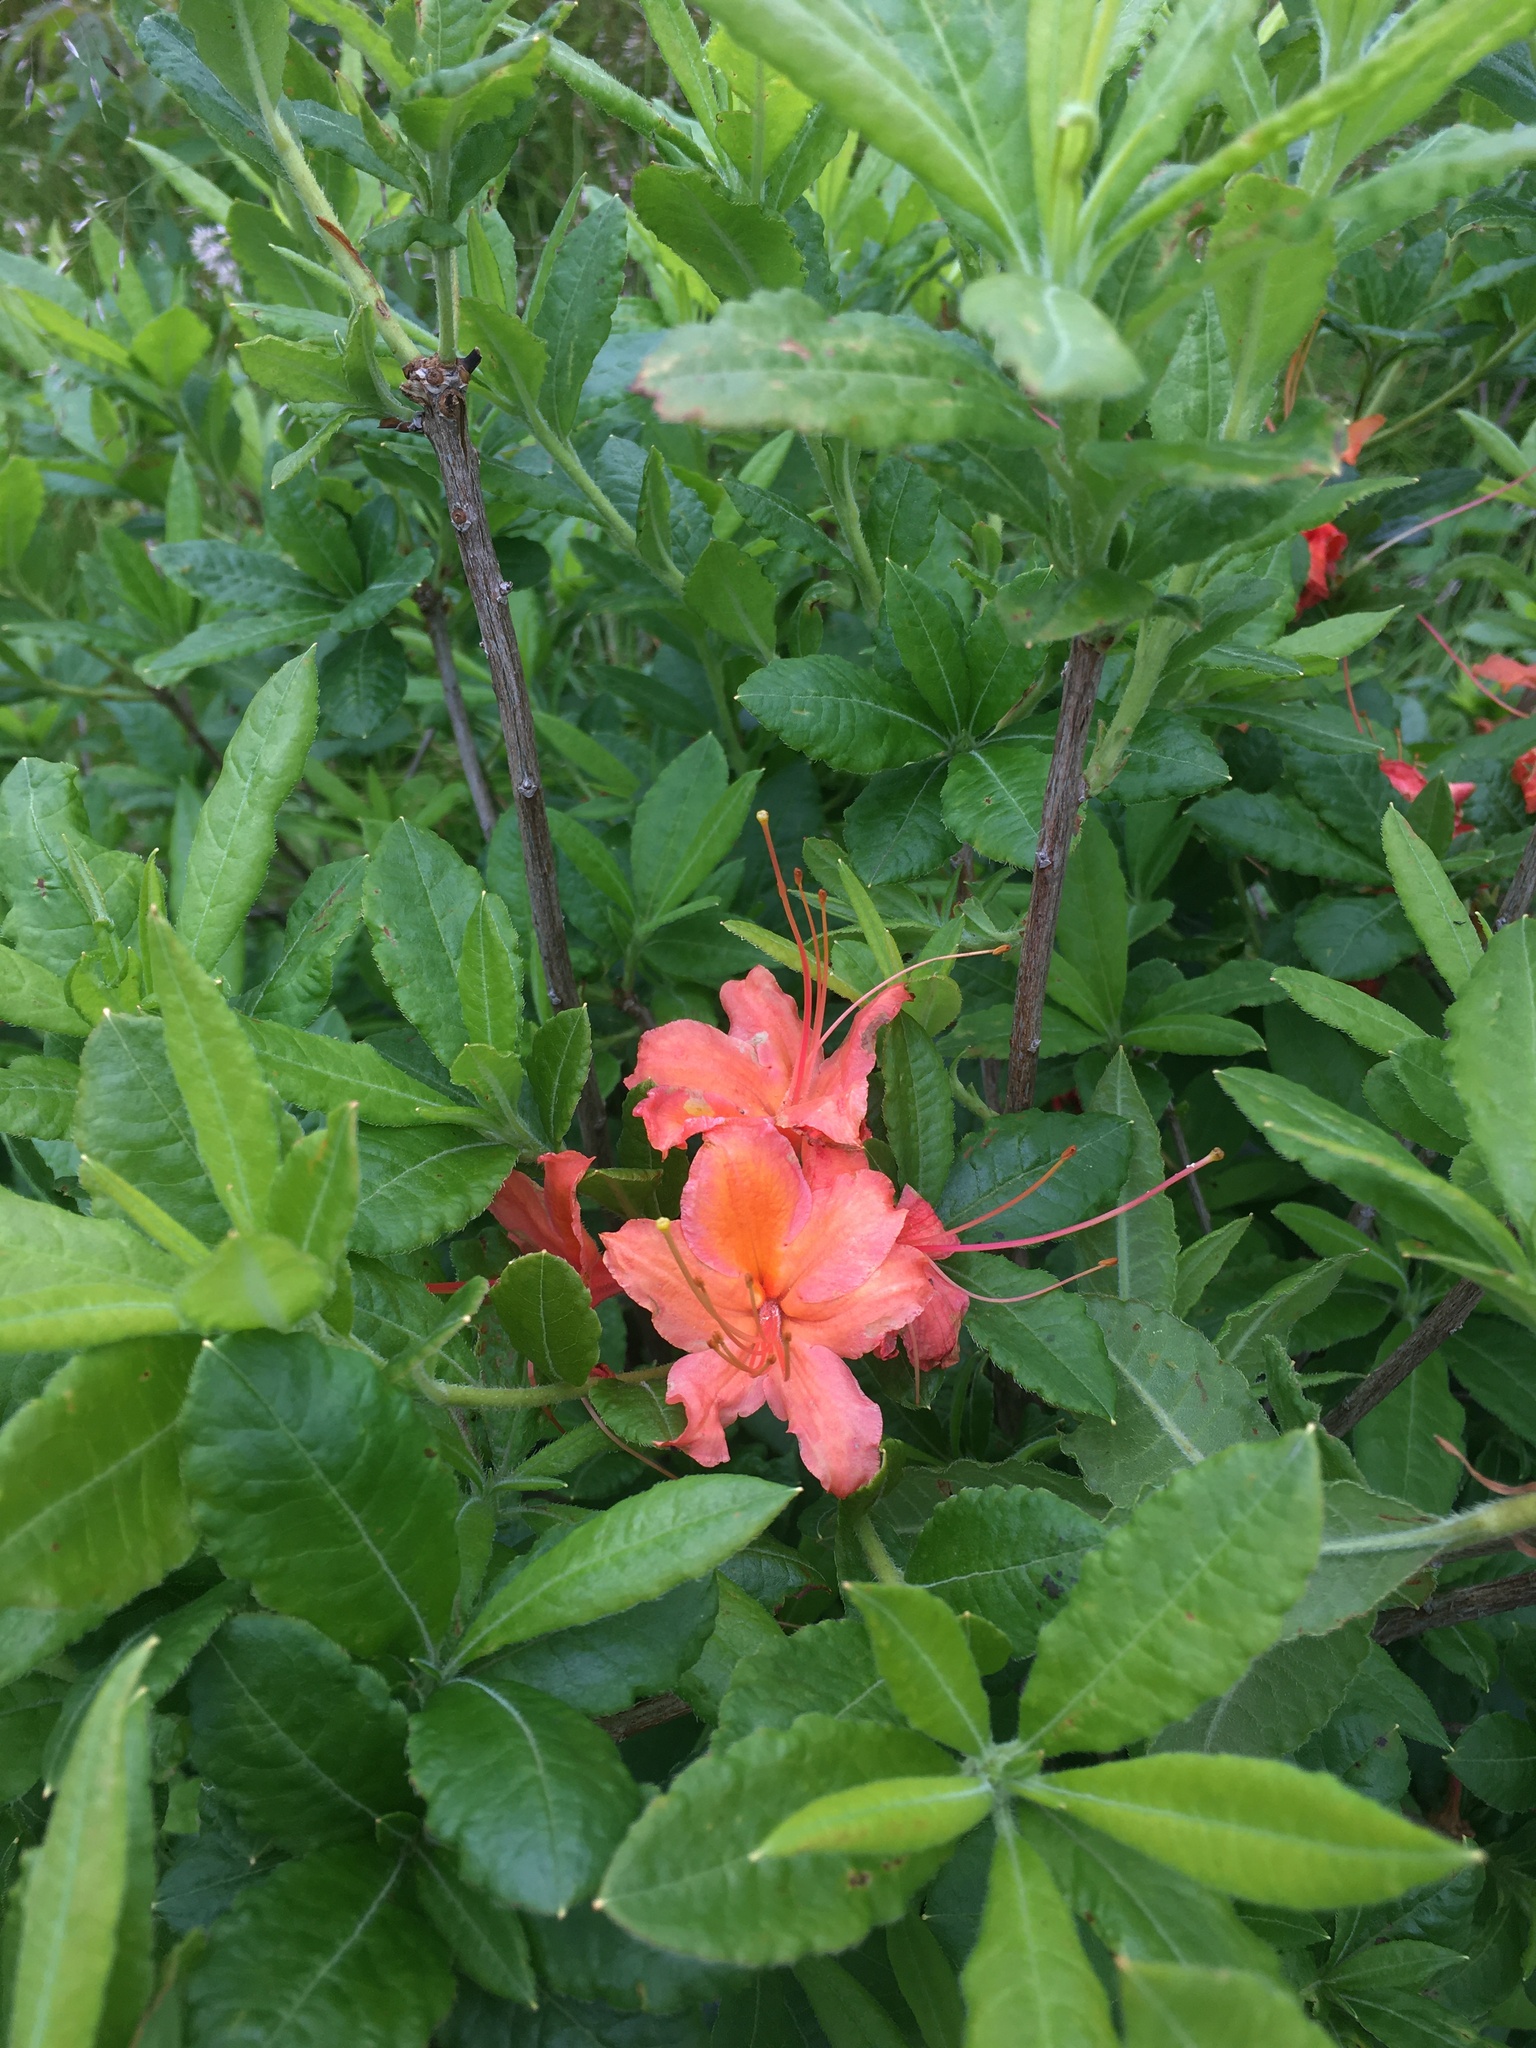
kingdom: Plantae
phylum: Tracheophyta
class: Magnoliopsida
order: Ericales
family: Ericaceae
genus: Rhododendron
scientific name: Rhododendron calendulaceum
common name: Flame azalea
